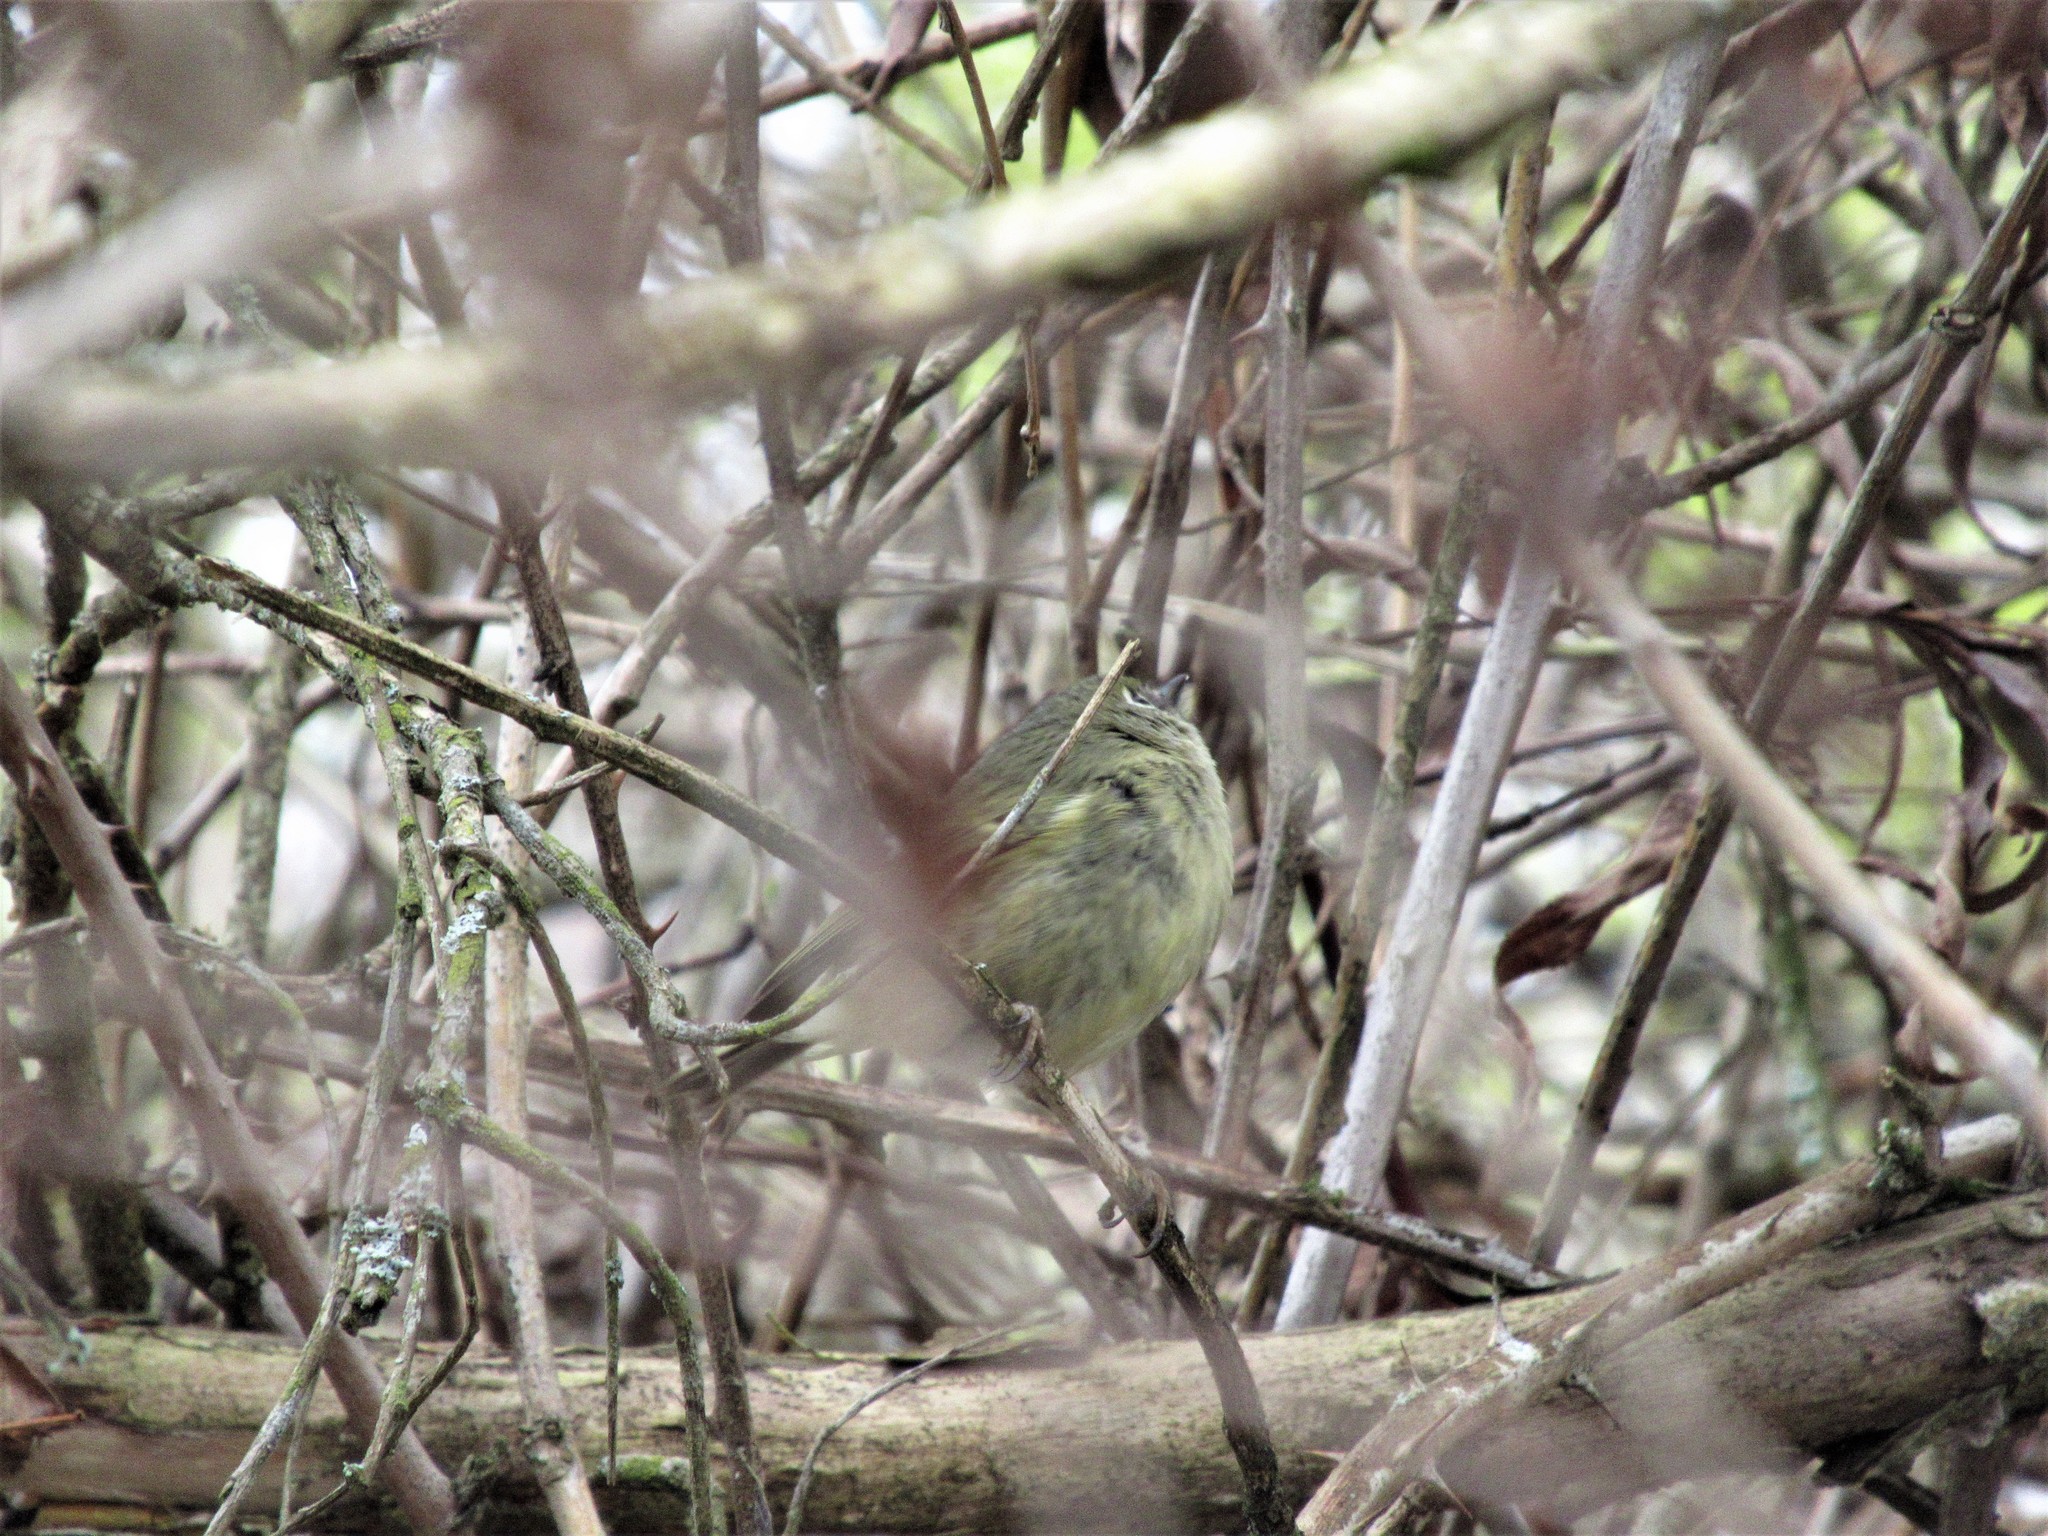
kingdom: Animalia
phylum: Chordata
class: Aves
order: Passeriformes
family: Regulidae
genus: Regulus
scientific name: Regulus calendula
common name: Ruby-crowned kinglet
